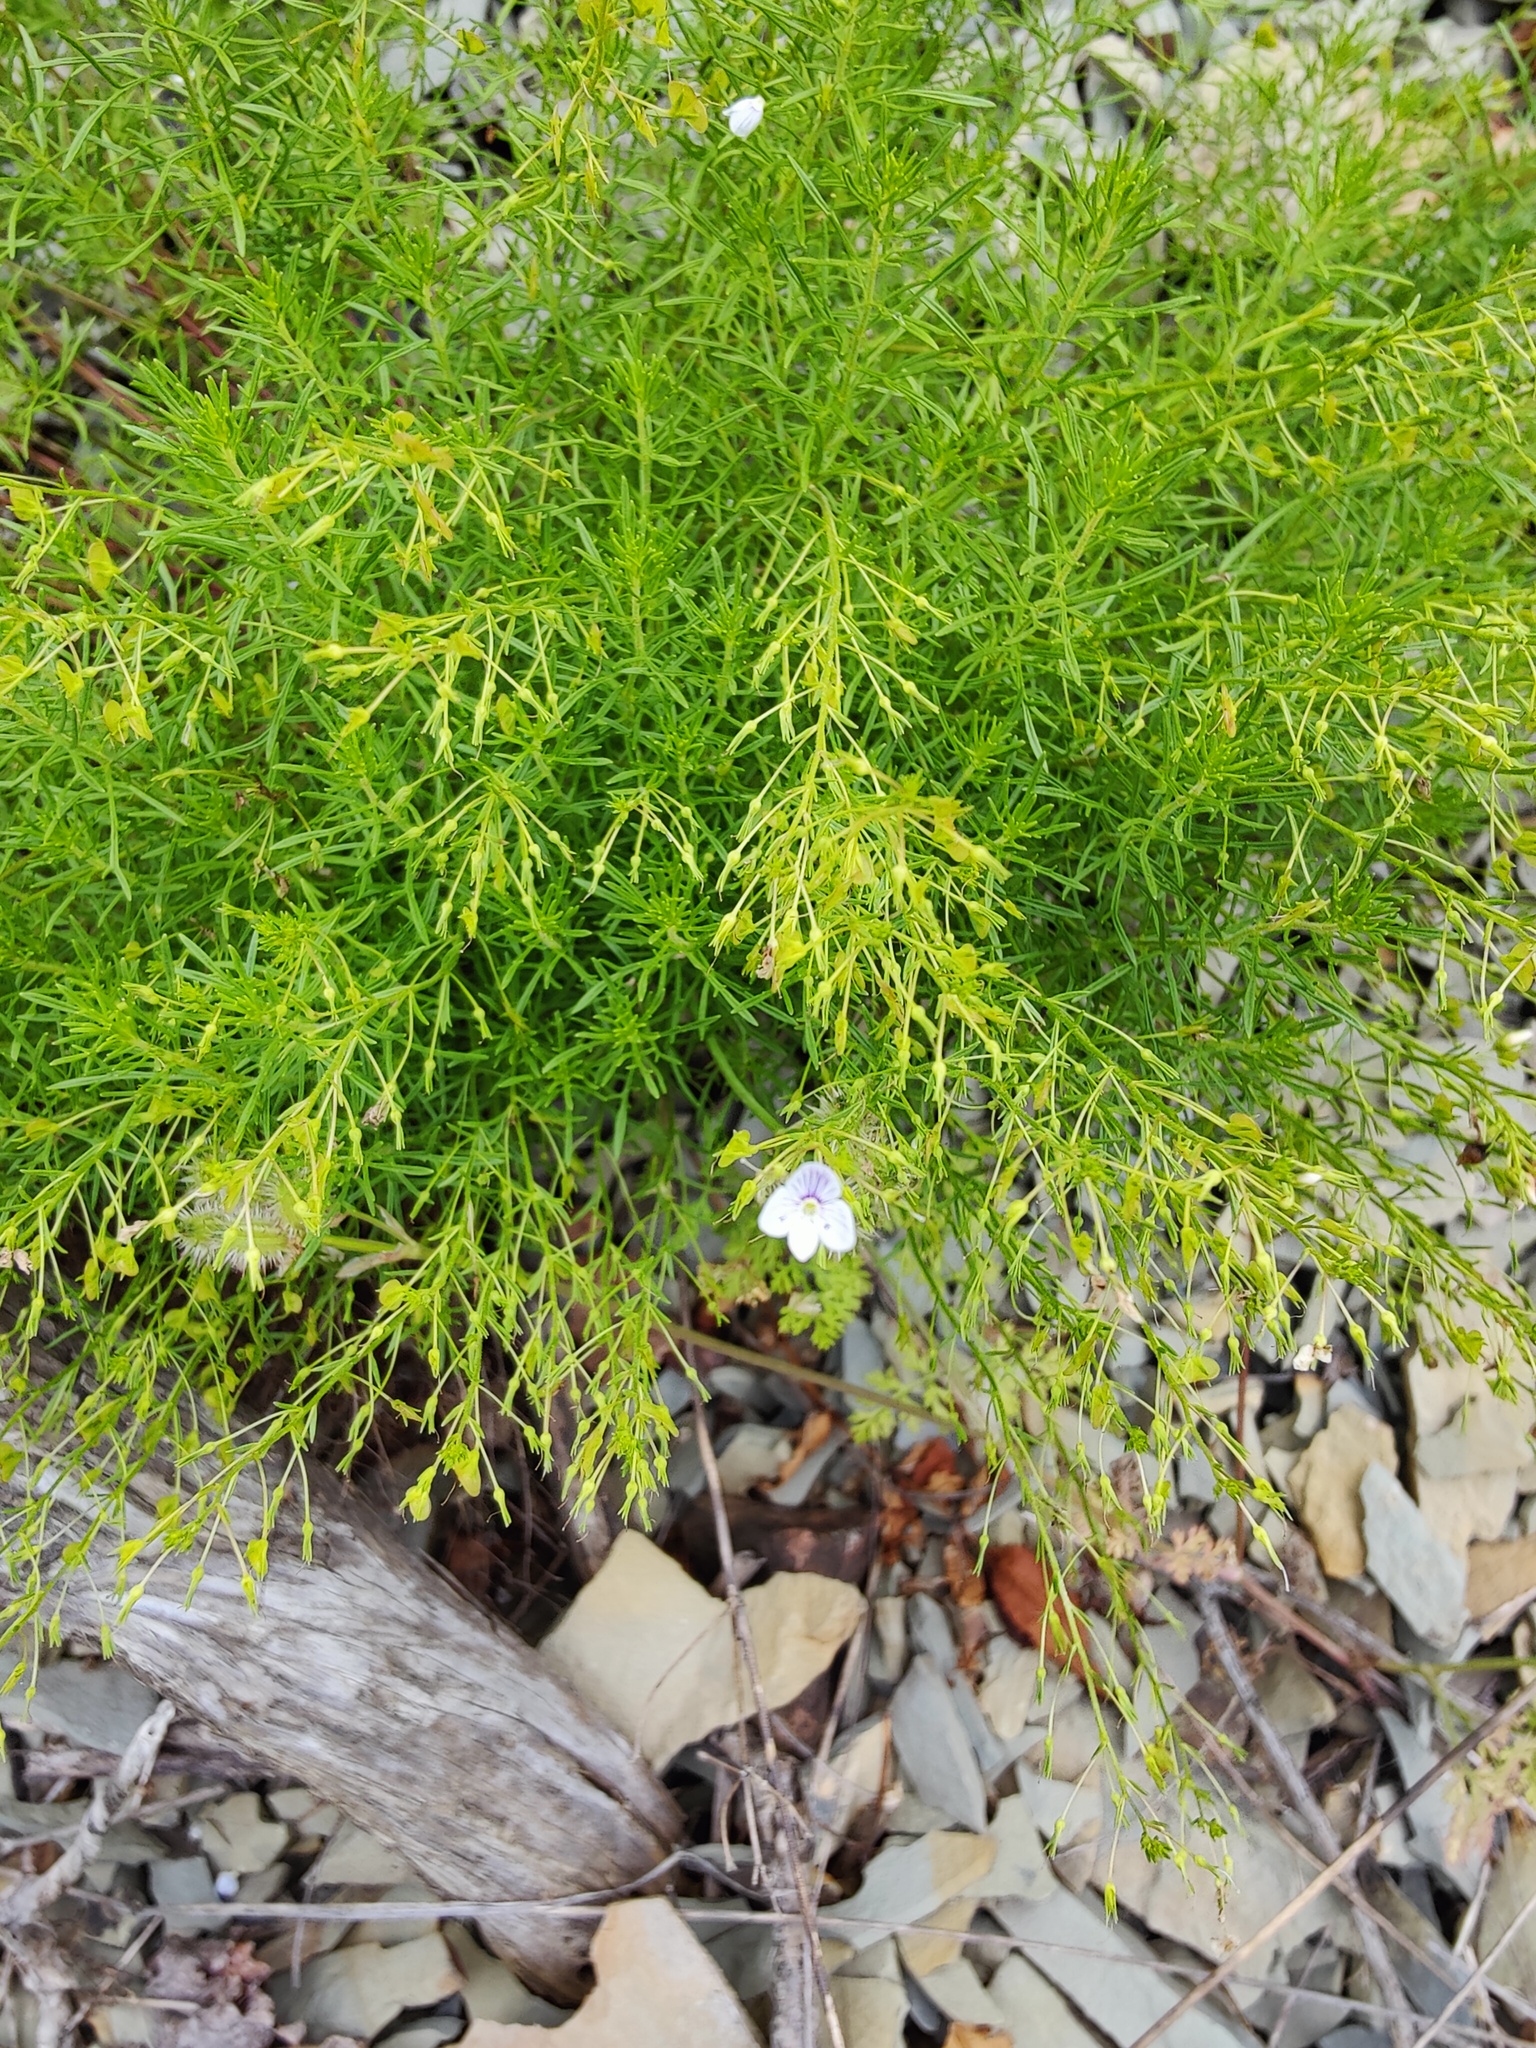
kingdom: Plantae
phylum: Tracheophyta
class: Magnoliopsida
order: Lamiales
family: Plantaginaceae
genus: Veronica
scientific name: Veronica filifolia
